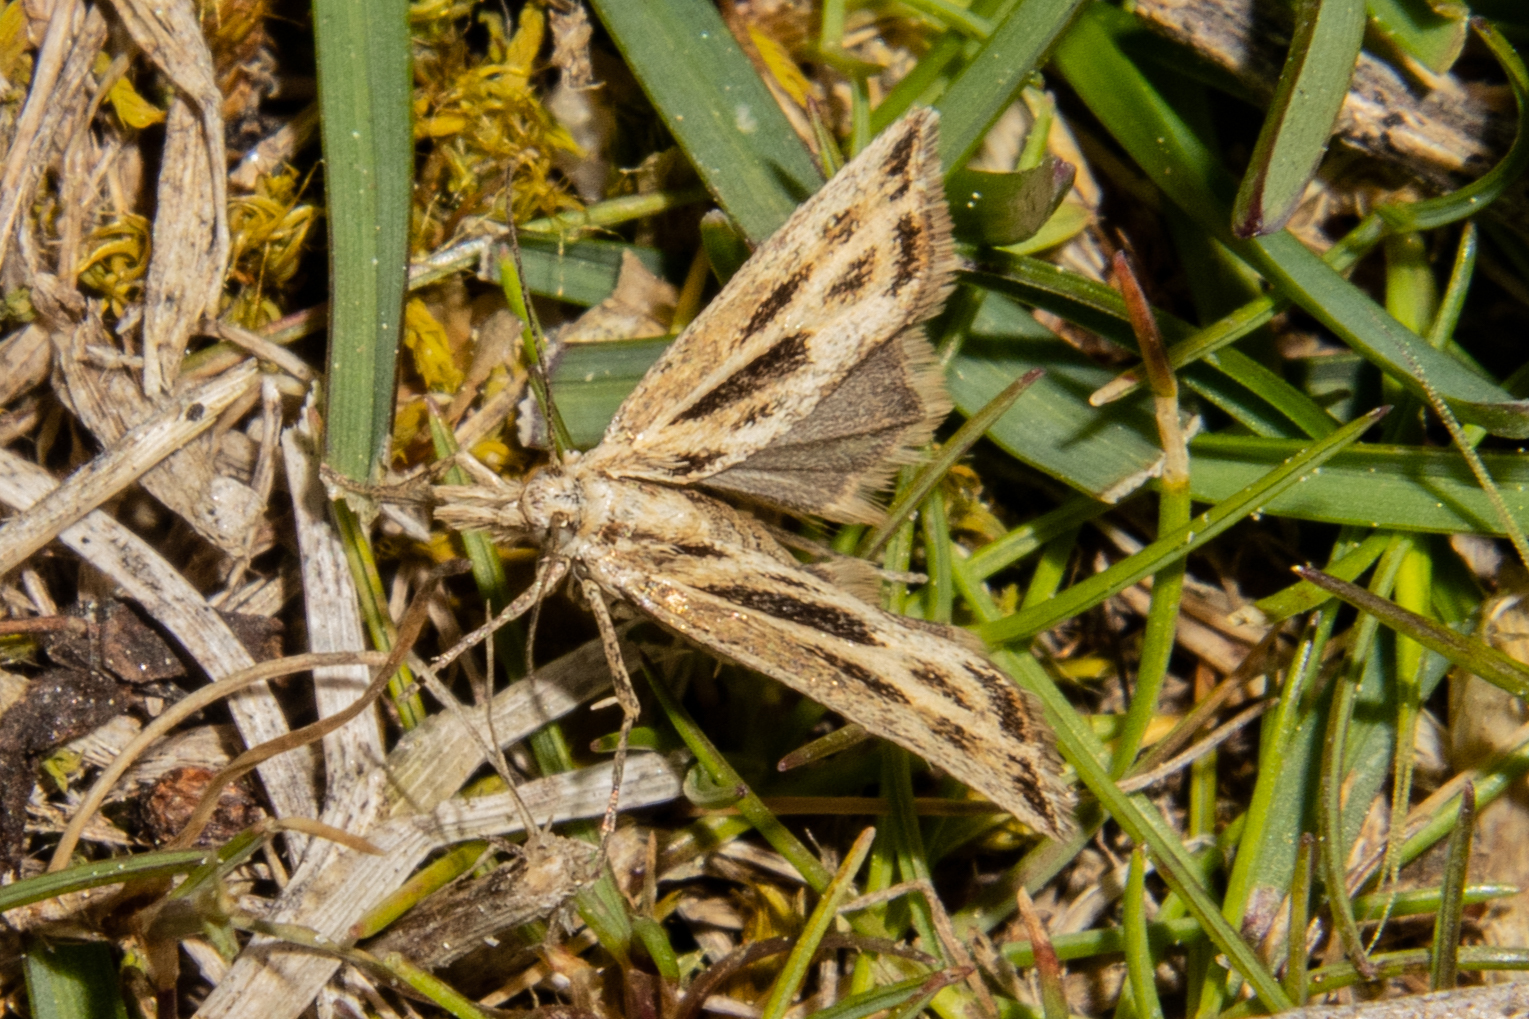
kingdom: Animalia
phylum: Arthropoda
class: Insecta
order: Lepidoptera
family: Crambidae
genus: Orocrambus
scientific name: Orocrambus corruptus
